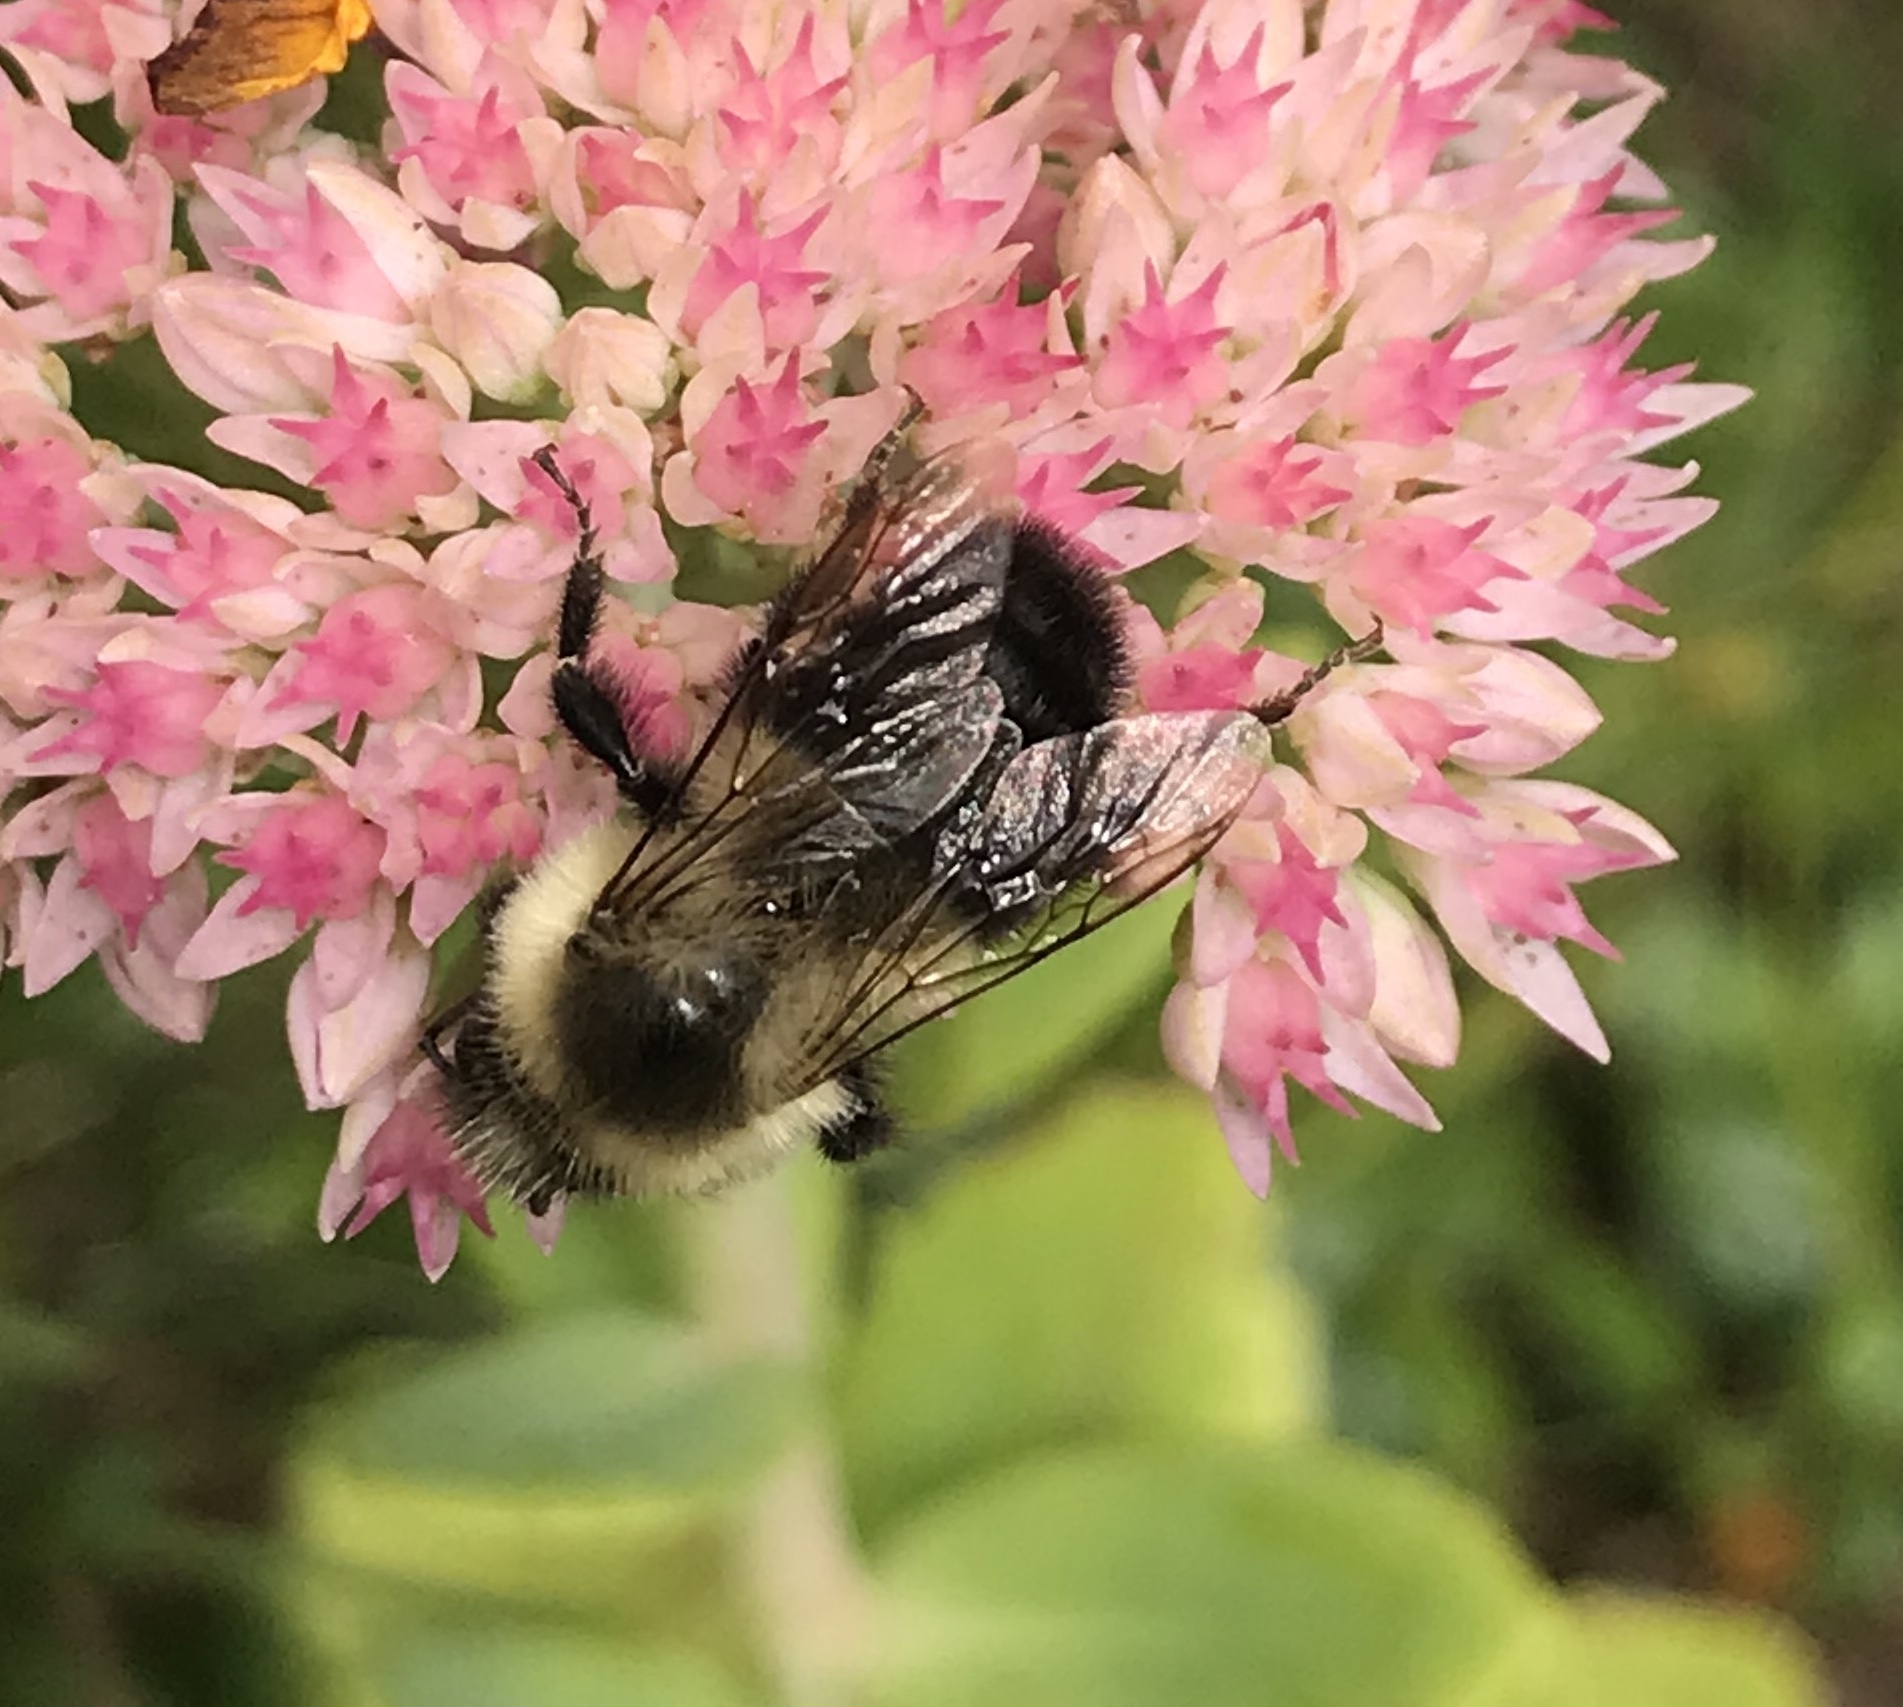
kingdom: Animalia
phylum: Arthropoda
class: Insecta
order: Hymenoptera
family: Apidae
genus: Bombus
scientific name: Bombus impatiens
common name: Common eastern bumble bee
